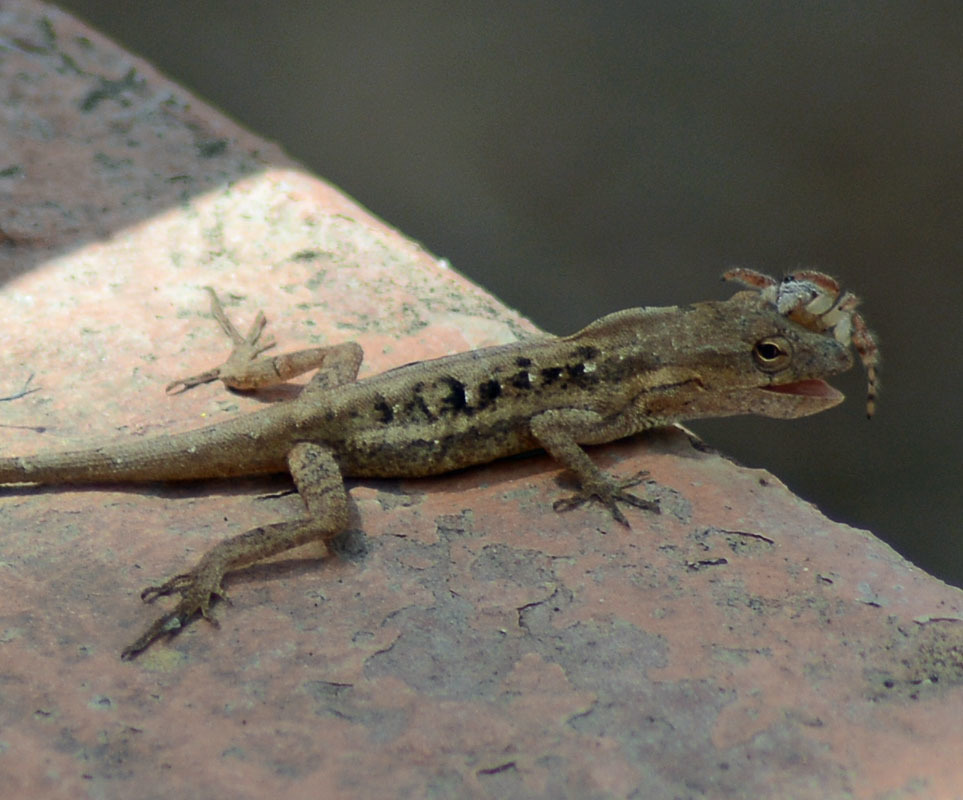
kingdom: Animalia
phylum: Chordata
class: Squamata
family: Dactyloidae
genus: Anolis
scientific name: Anolis nebulosus
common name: Clouded anole
